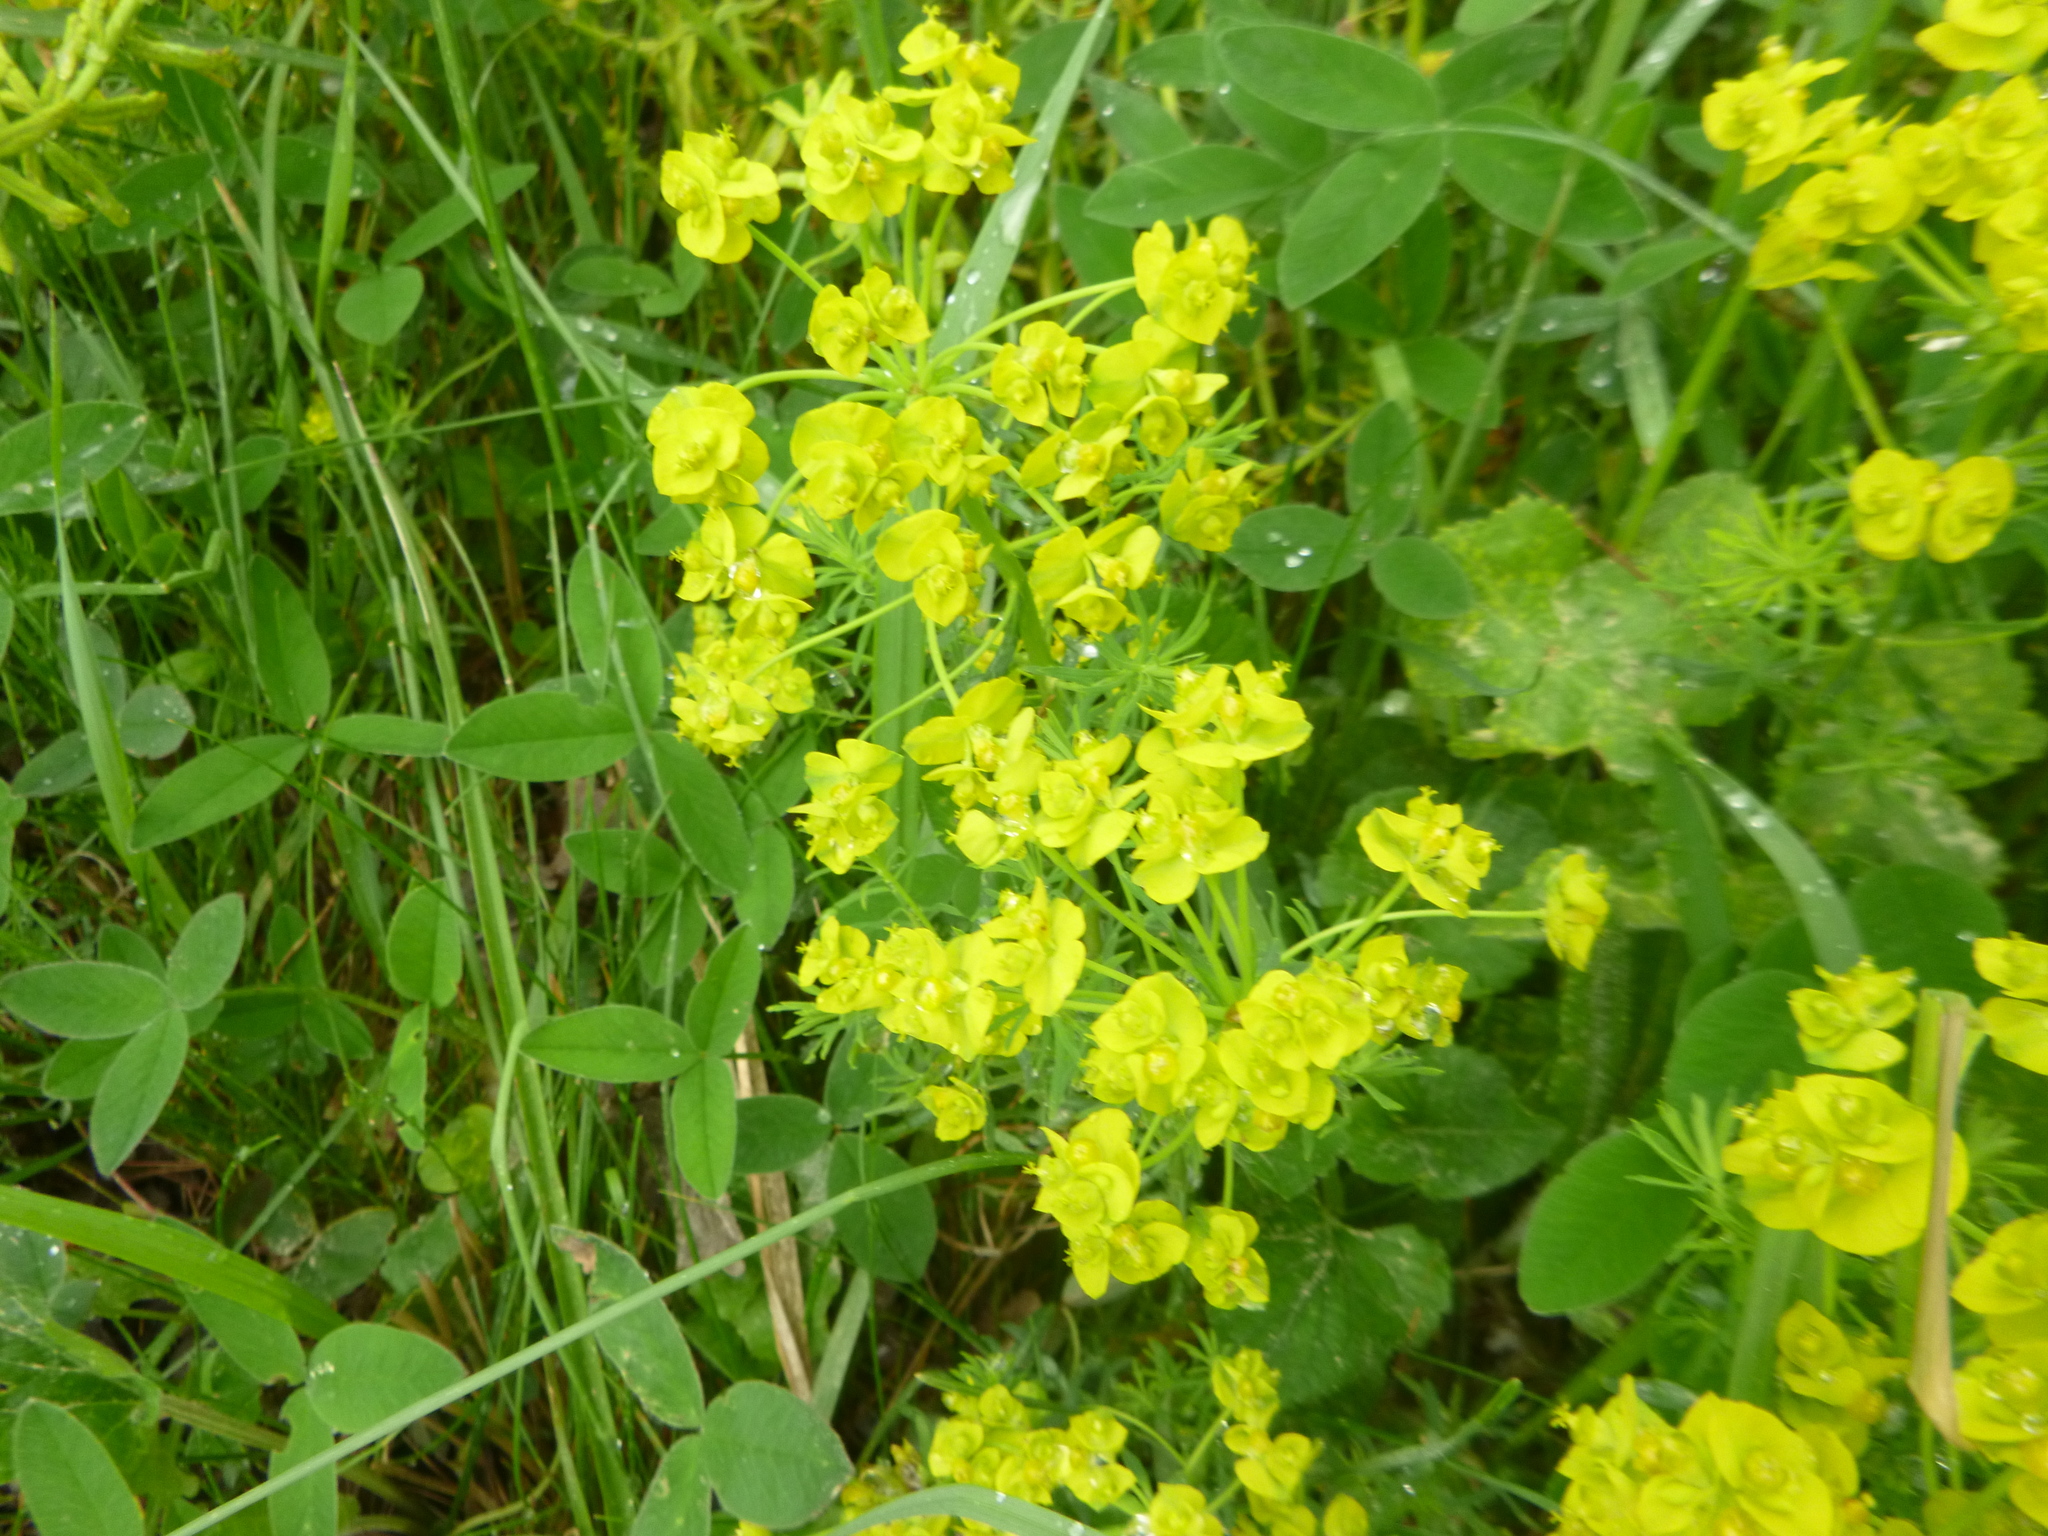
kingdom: Plantae
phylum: Tracheophyta
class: Magnoliopsida
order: Malpighiales
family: Euphorbiaceae
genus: Euphorbia
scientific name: Euphorbia cyparissias
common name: Cypress spurge
